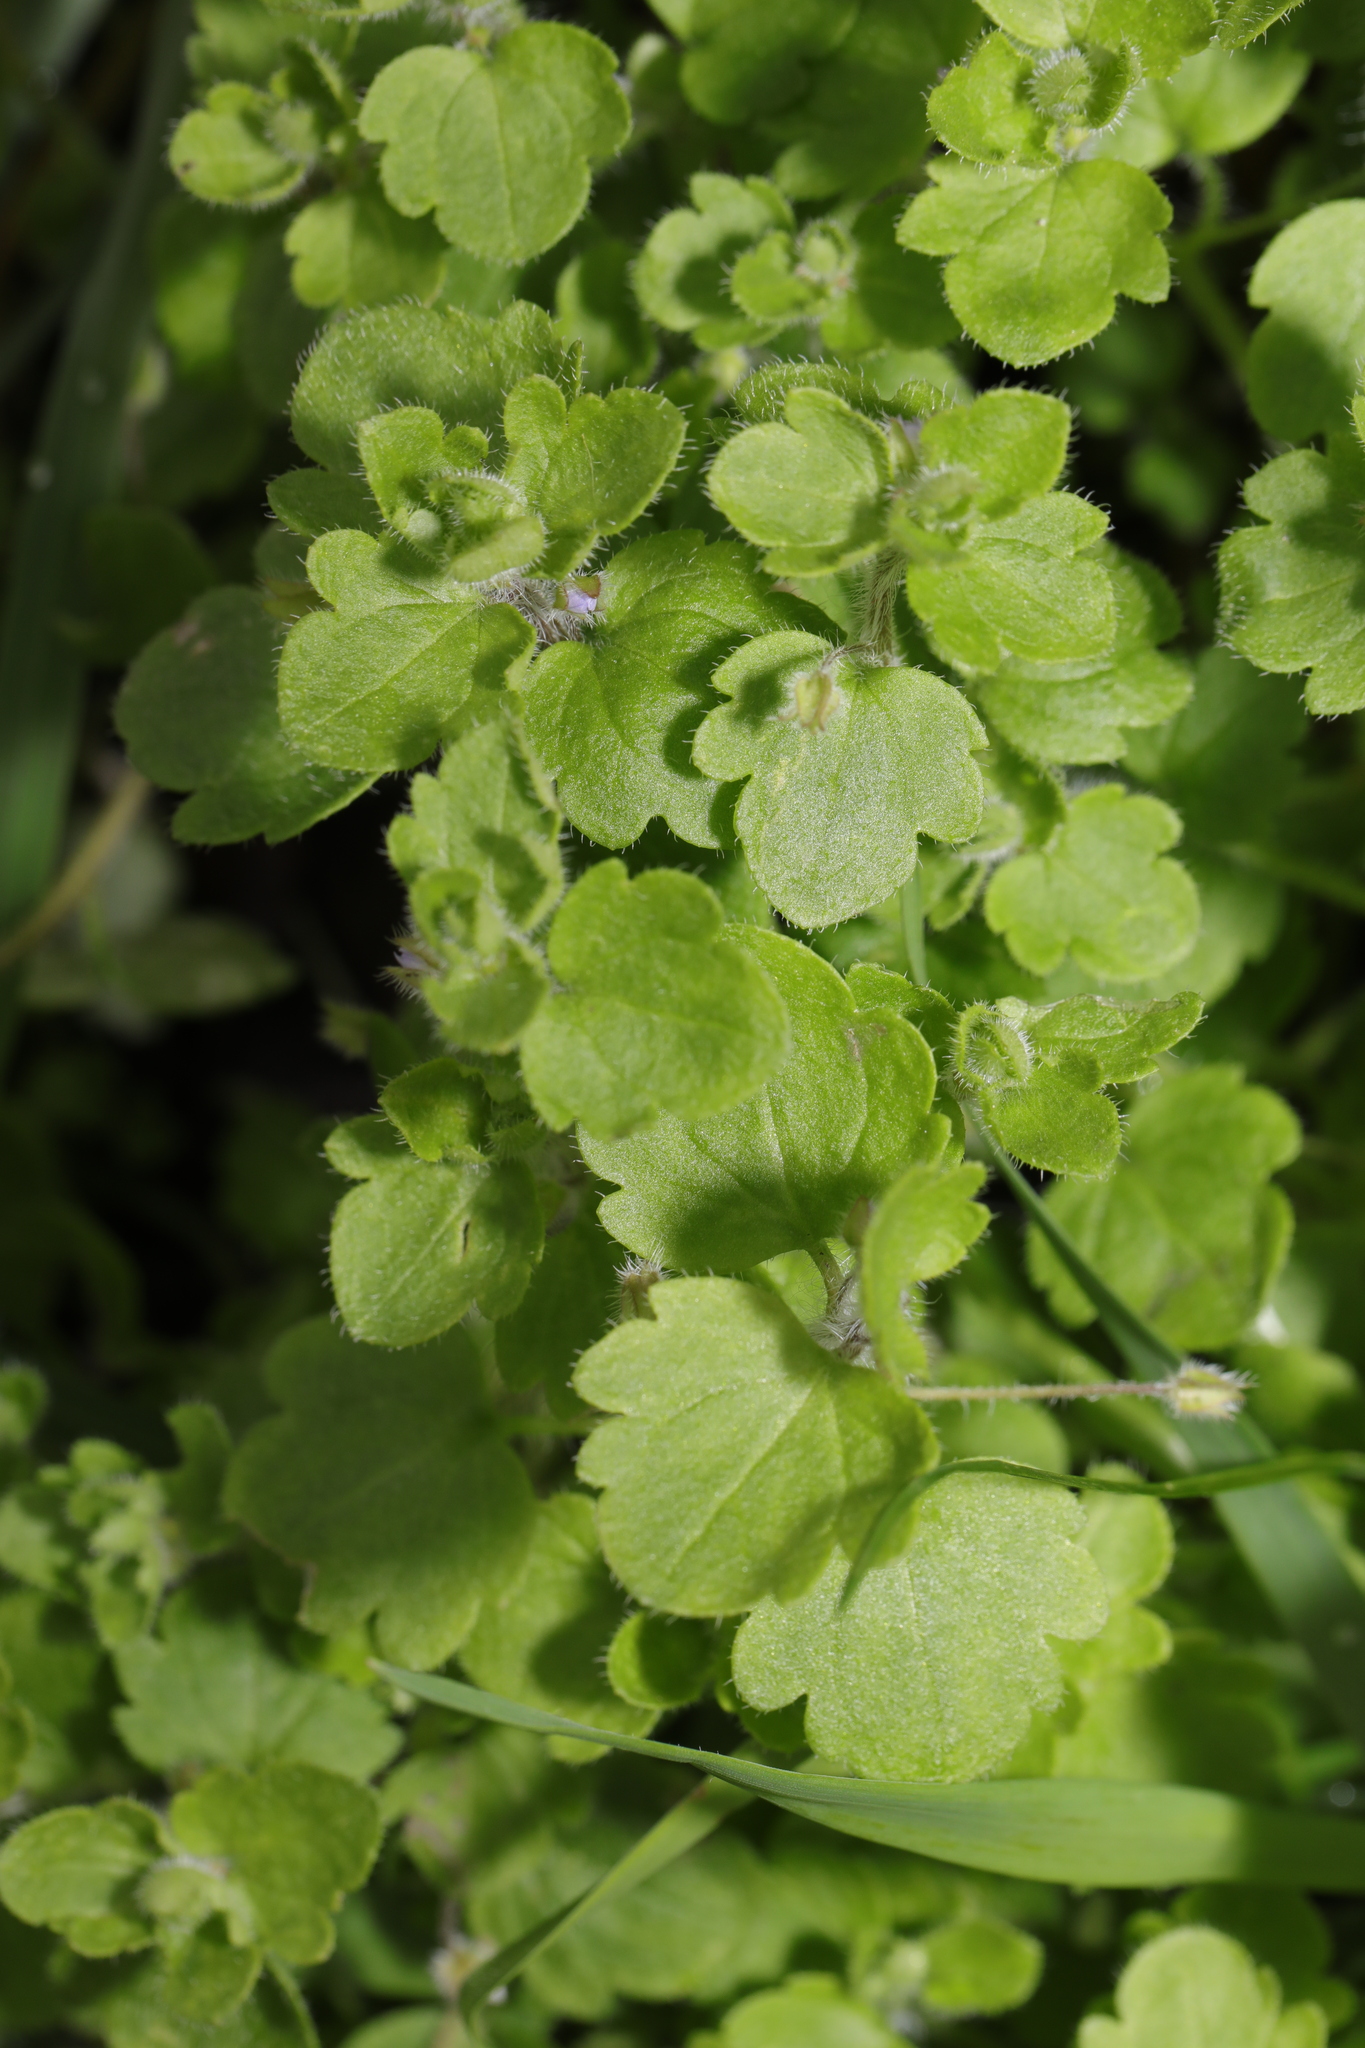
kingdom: Plantae
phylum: Tracheophyta
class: Magnoliopsida
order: Lamiales
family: Plantaginaceae
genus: Veronica
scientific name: Veronica sublobata
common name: False ivy-leaved speedwell
